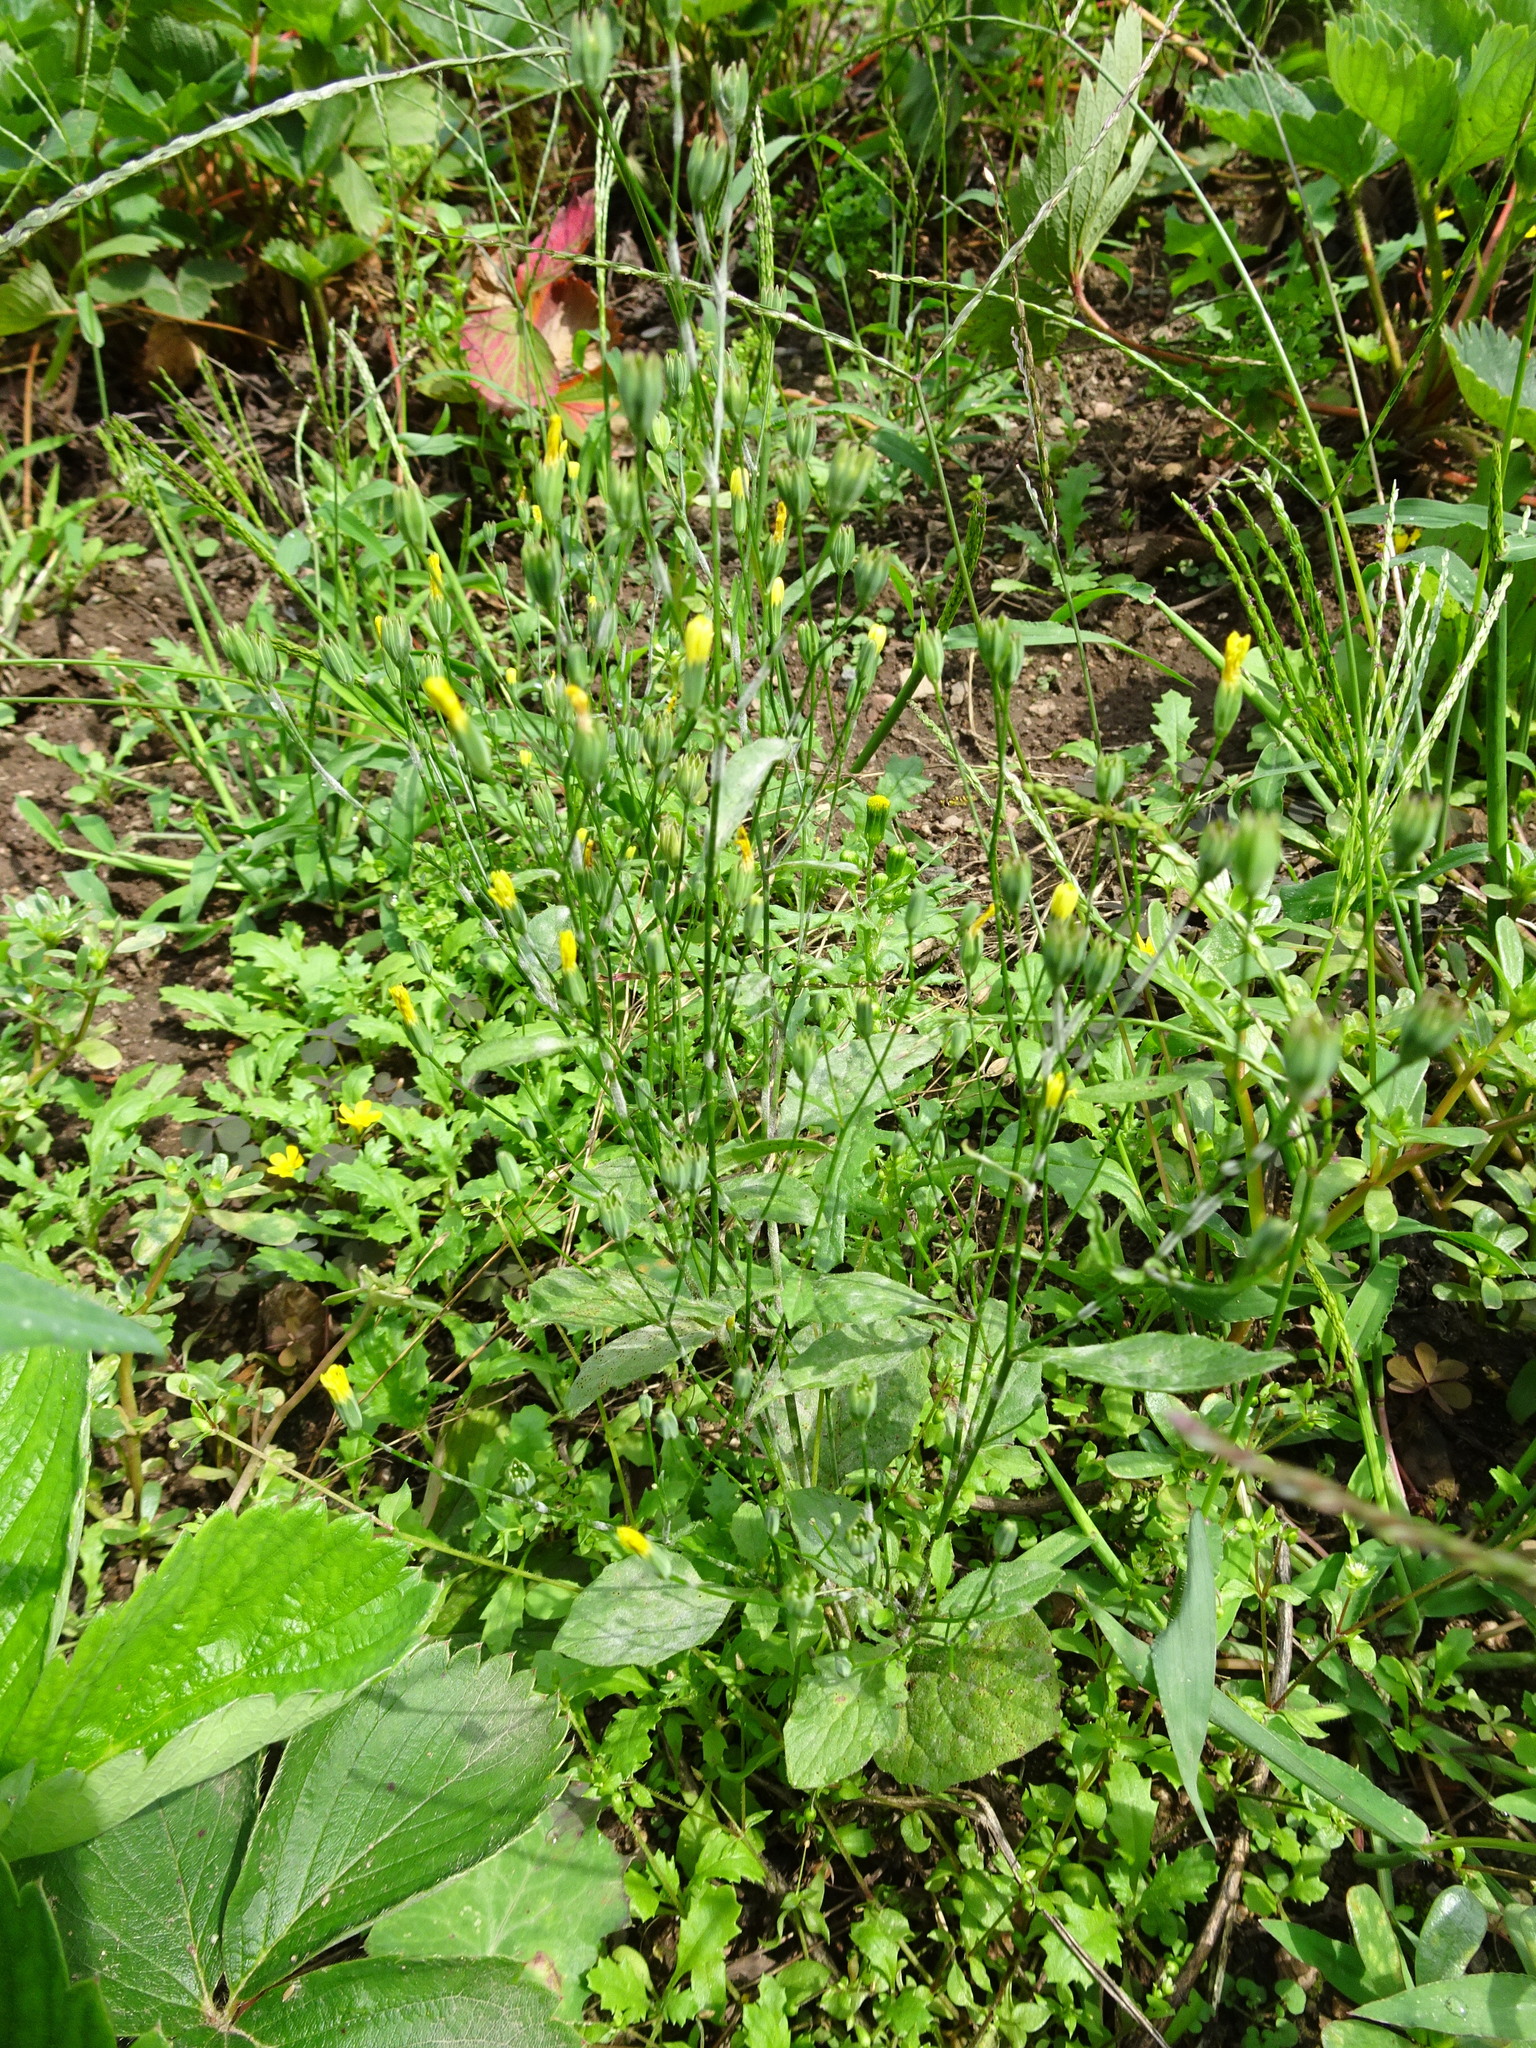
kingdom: Plantae
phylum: Tracheophyta
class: Magnoliopsida
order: Asterales
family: Asteraceae
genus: Lapsana
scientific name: Lapsana communis
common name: Nipplewort
